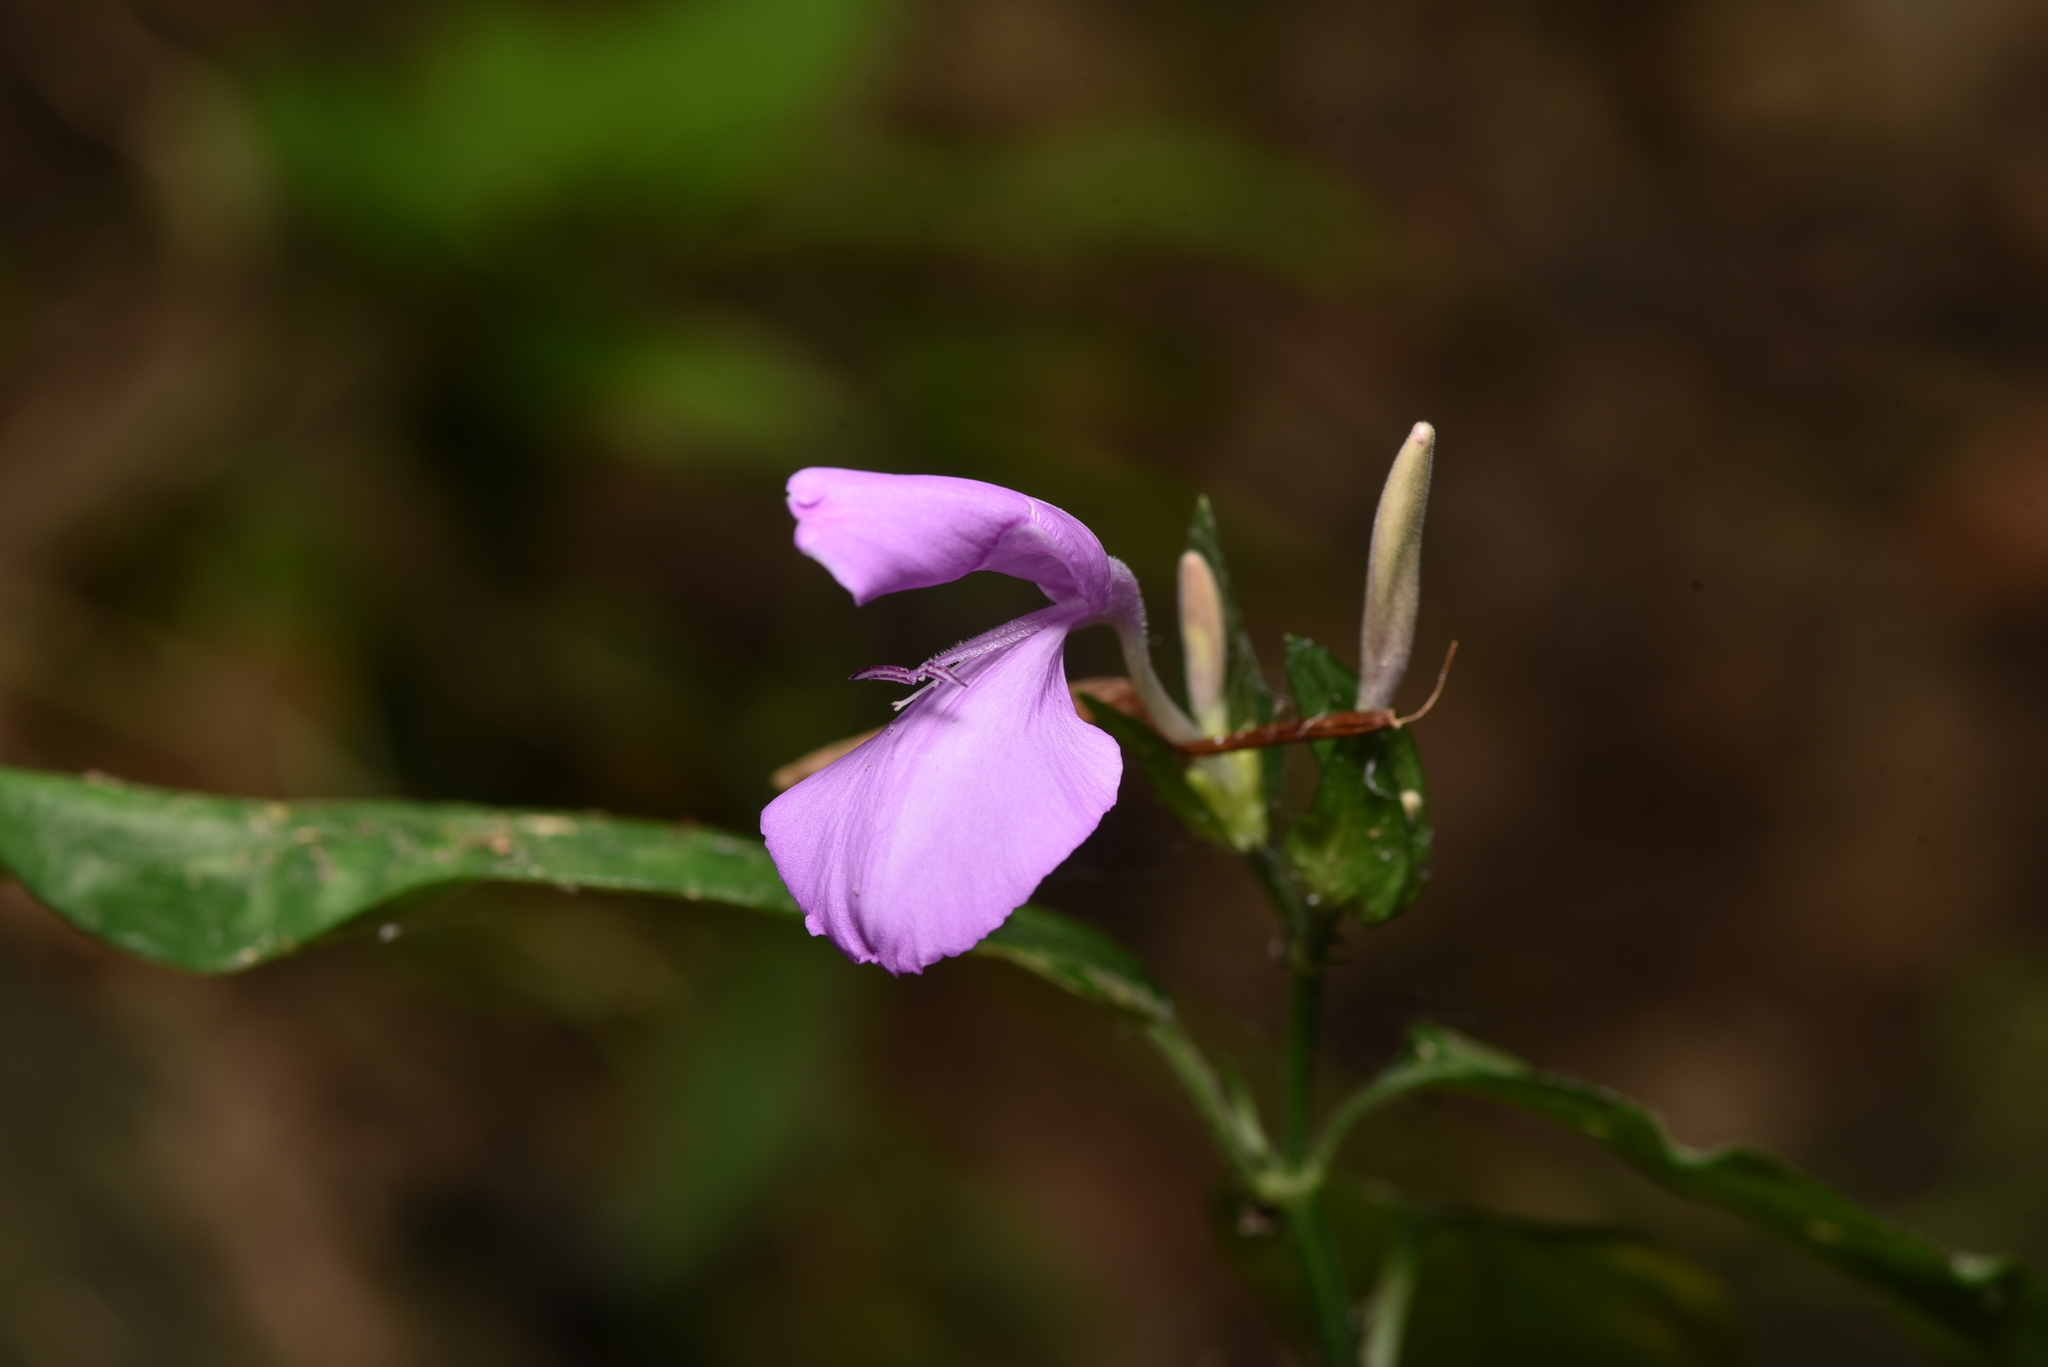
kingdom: Plantae
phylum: Tracheophyta
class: Magnoliopsida
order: Lamiales
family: Acanthaceae
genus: Dicliptera
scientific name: Dicliptera tinctoria
